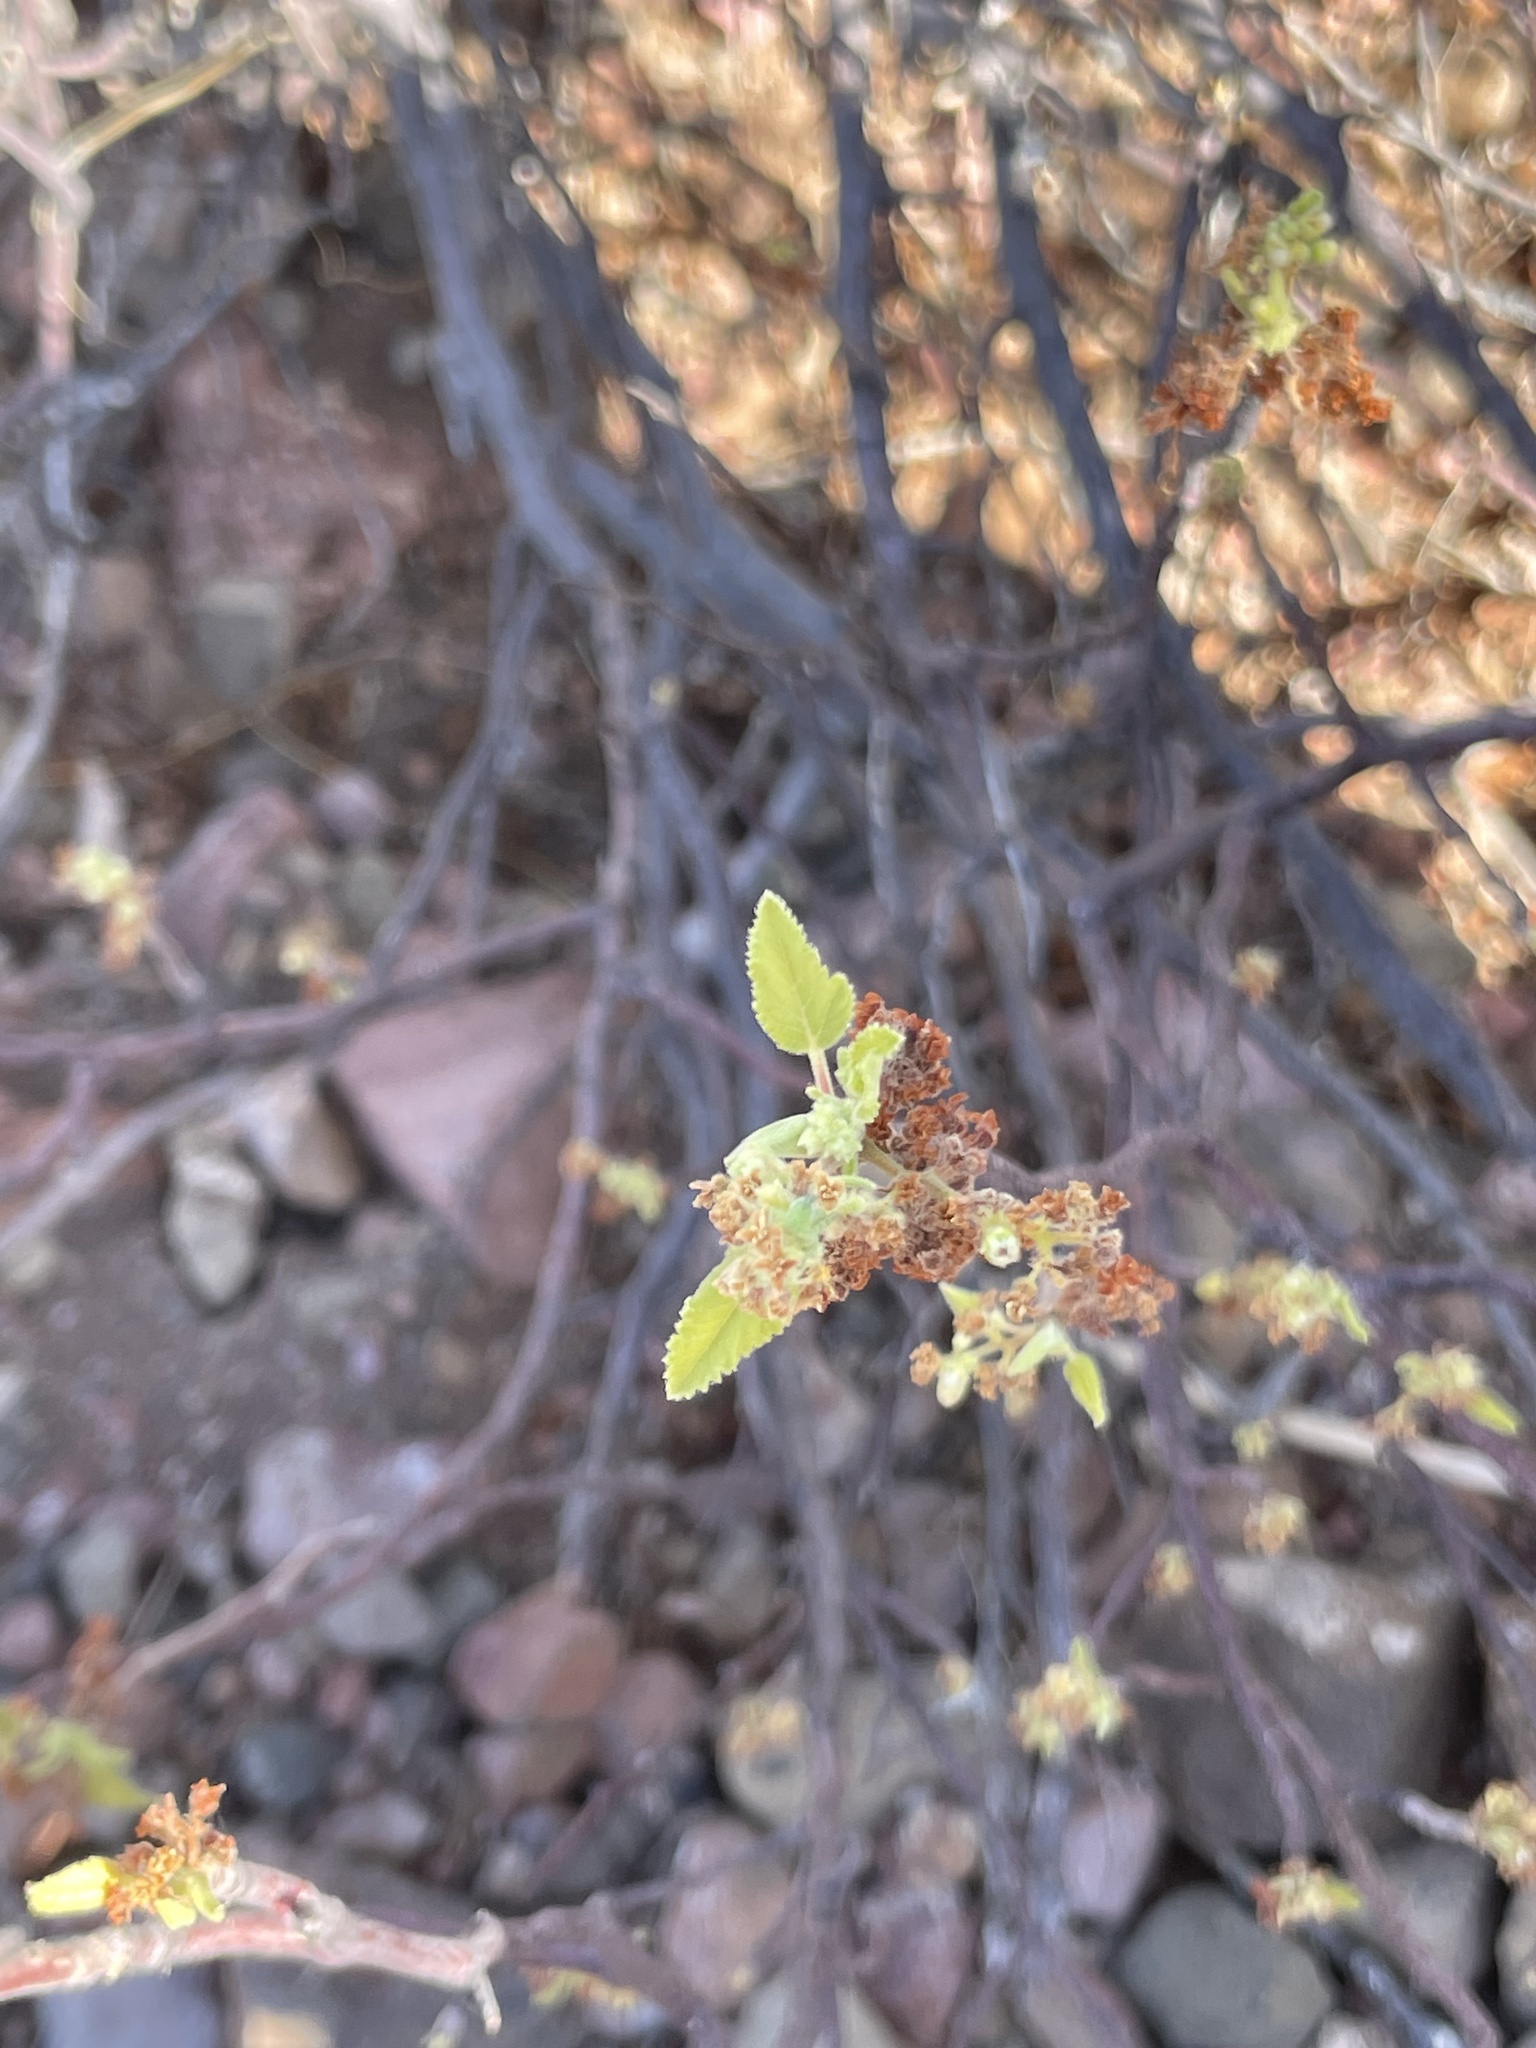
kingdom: Plantae
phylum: Tracheophyta
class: Magnoliopsida
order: Sapindales
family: Burseraceae
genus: Bursera
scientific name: Bursera hindsiana
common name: Red elephant tree
